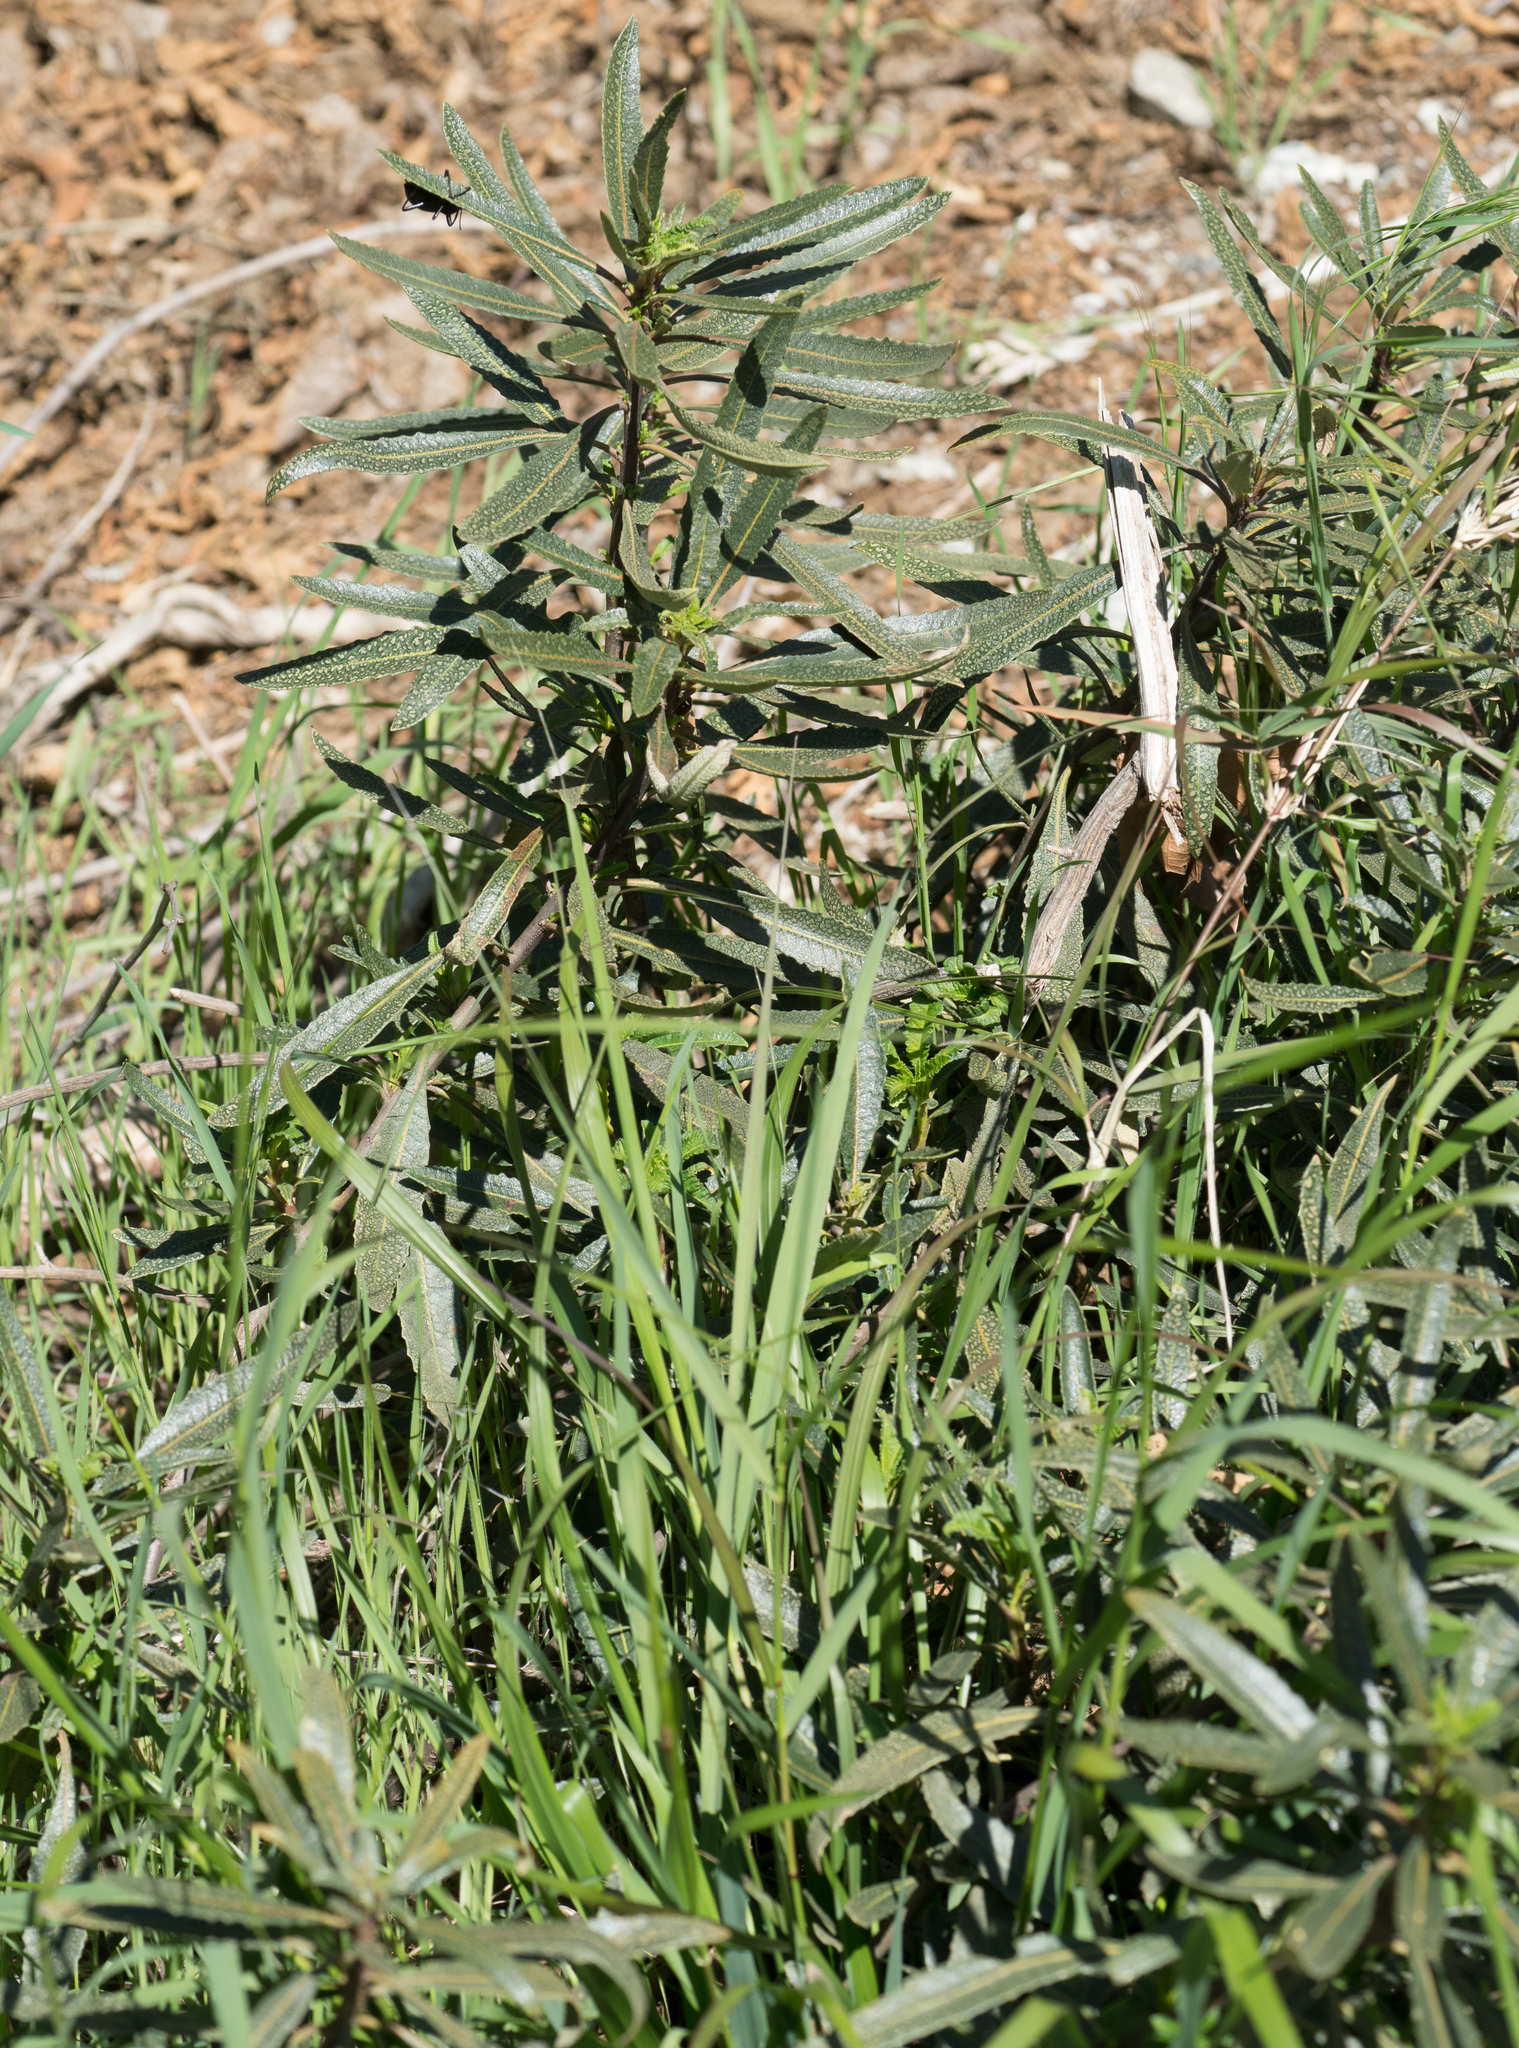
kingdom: Plantae
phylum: Tracheophyta
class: Magnoliopsida
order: Boraginales
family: Namaceae
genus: Eriodictyon
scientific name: Eriodictyon trichocalyx
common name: Hairy yerba-santa
